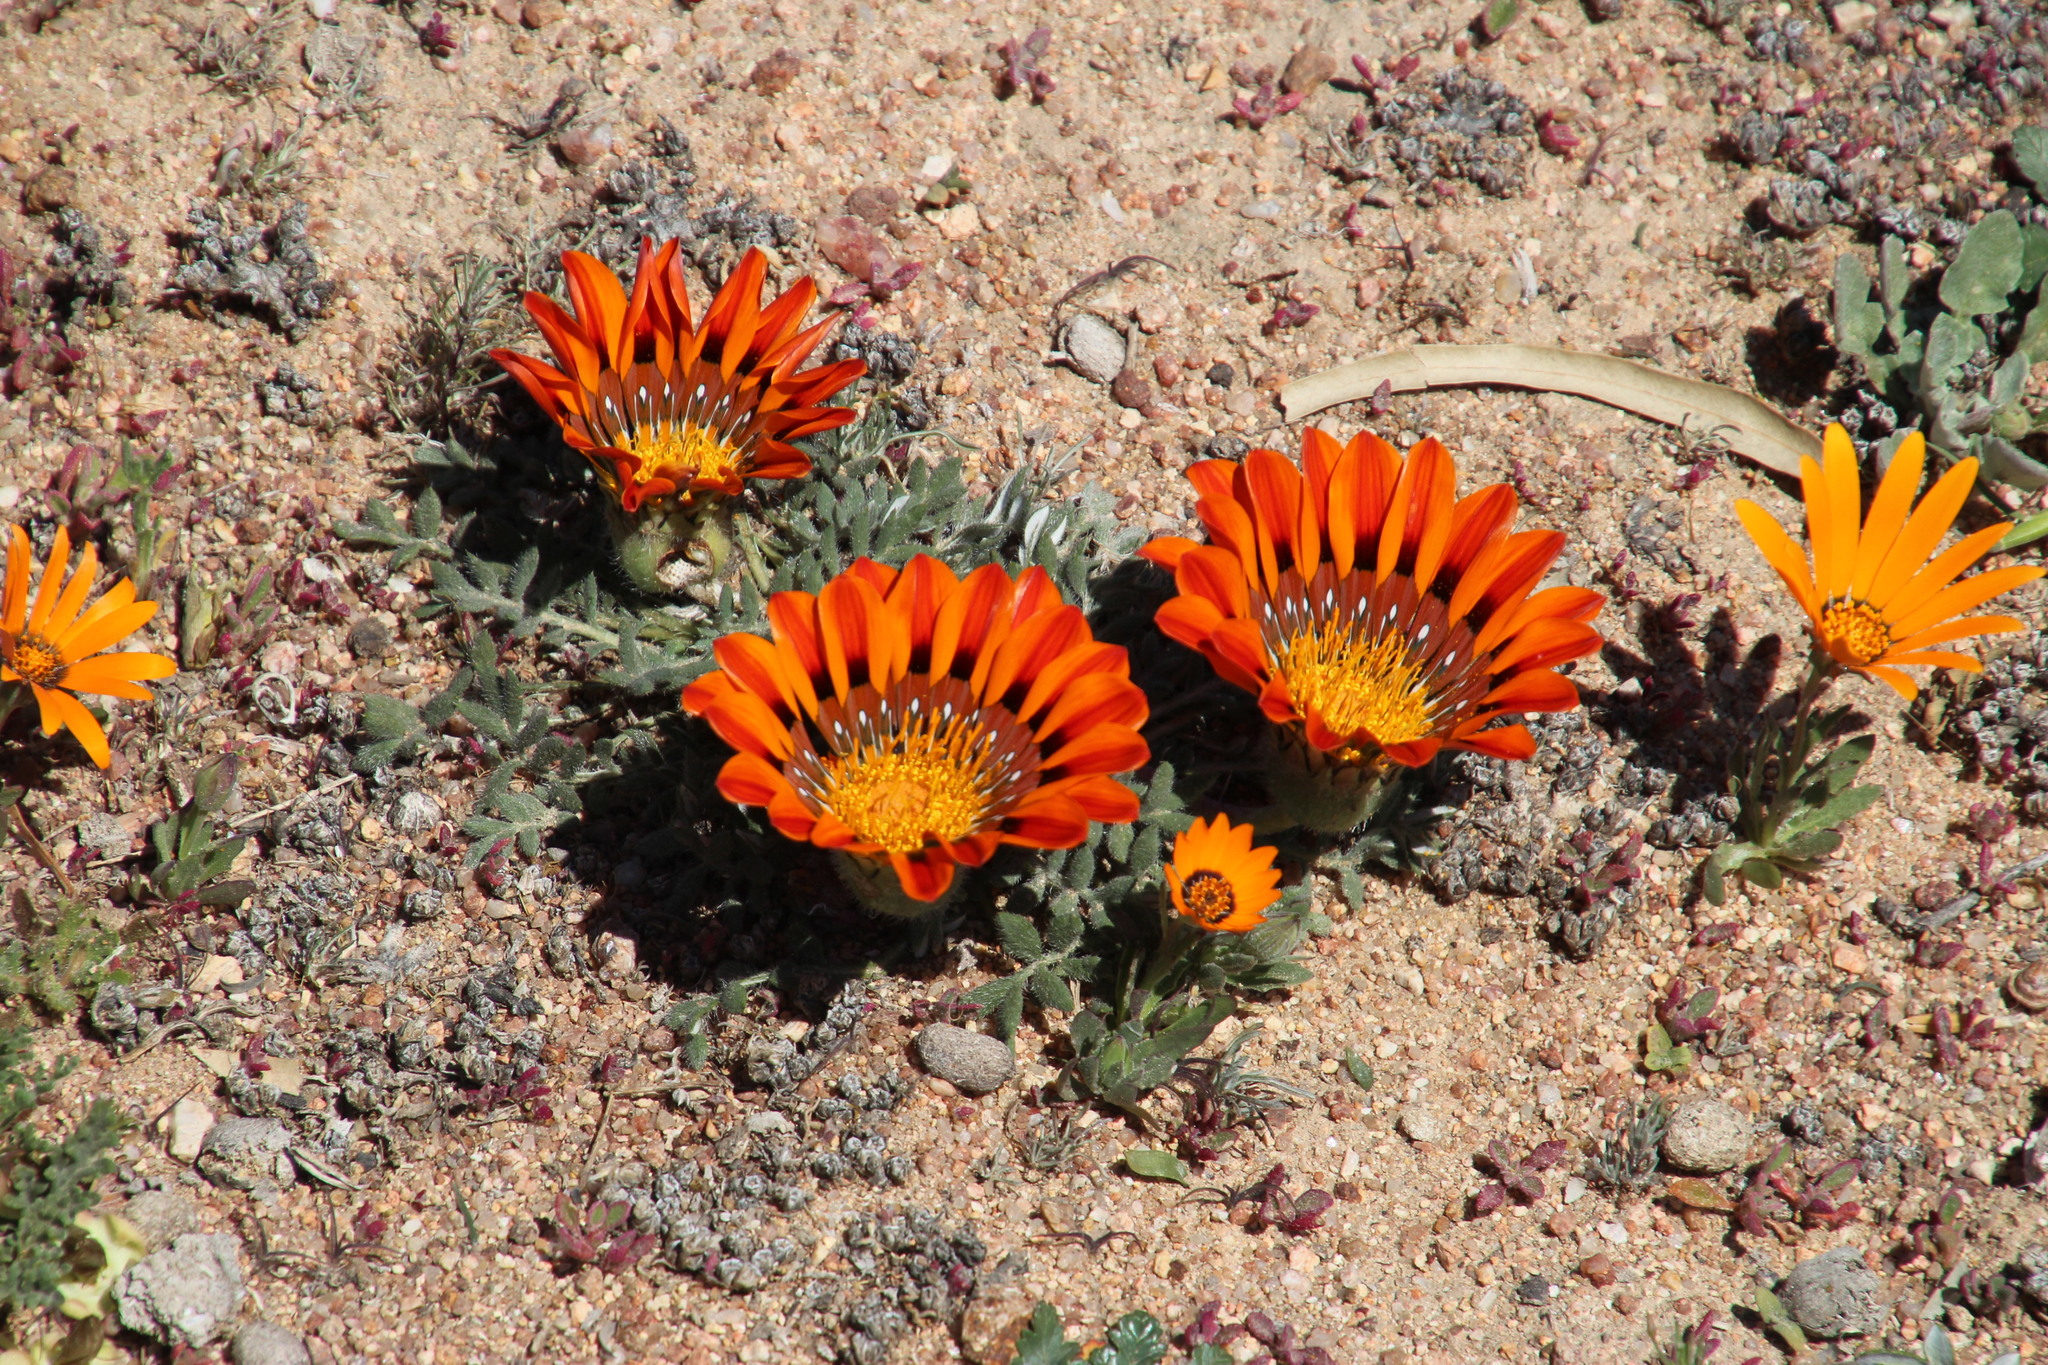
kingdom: Plantae
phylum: Tracheophyta
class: Magnoliopsida
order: Asterales
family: Asteraceae
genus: Gazania
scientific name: Gazania leiopoda
